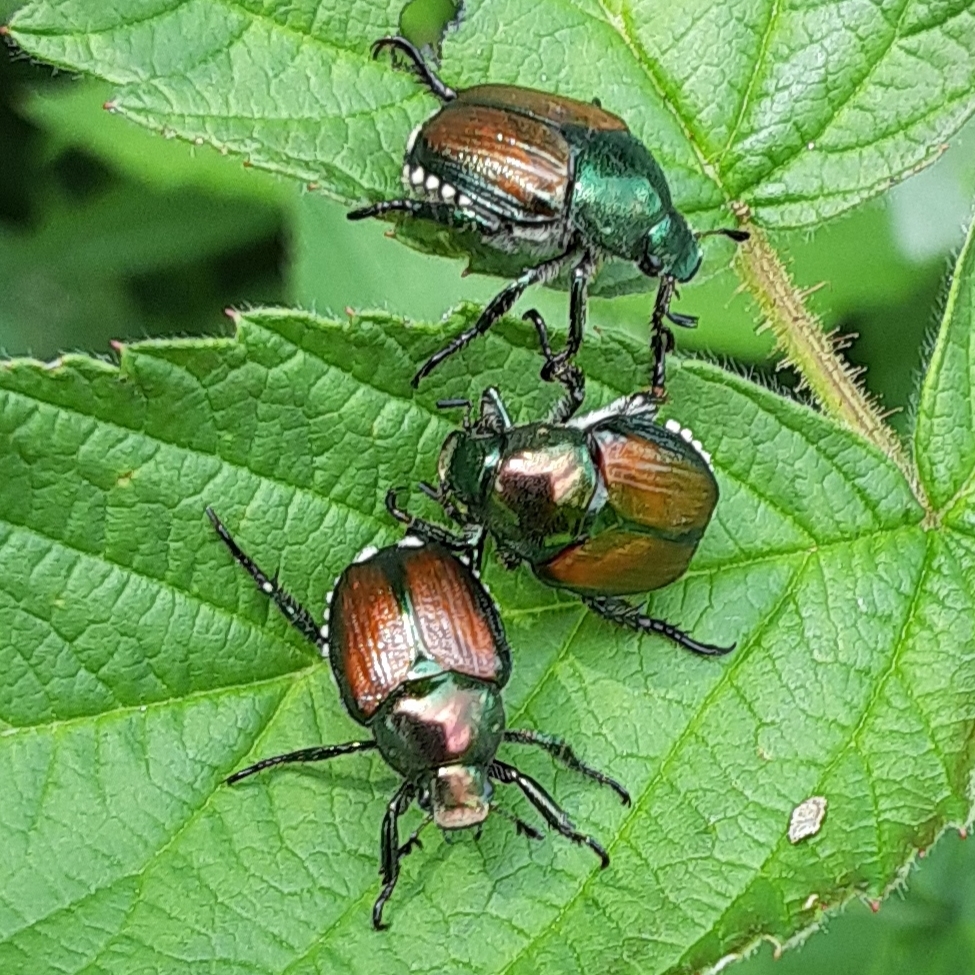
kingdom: Animalia
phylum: Arthropoda
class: Insecta
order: Coleoptera
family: Scarabaeidae
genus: Popillia
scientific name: Popillia japonica
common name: Japanese beetle
